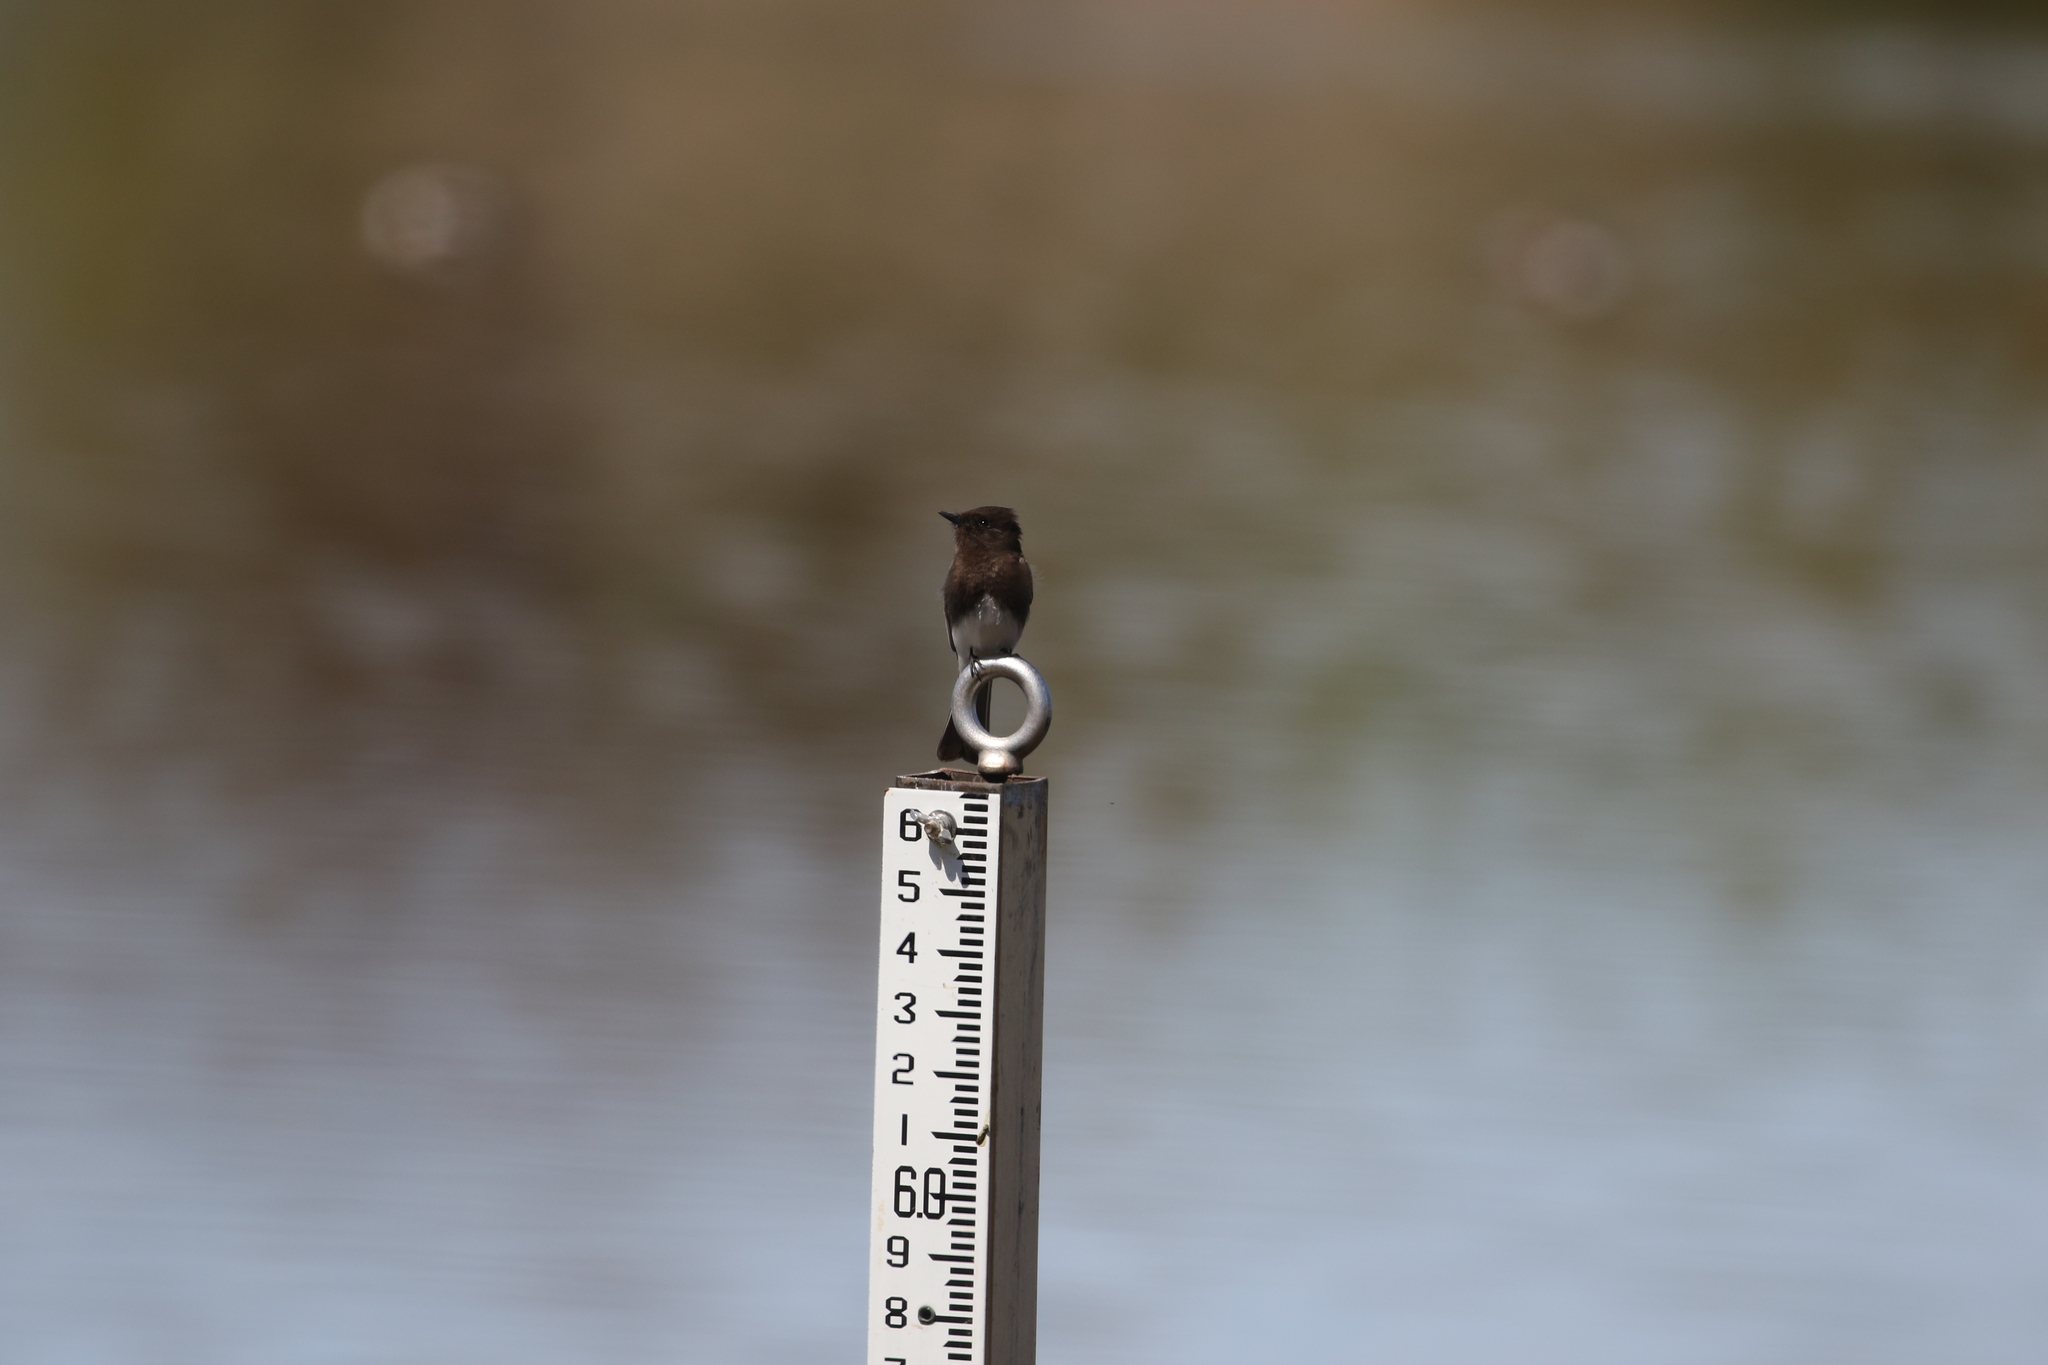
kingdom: Animalia
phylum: Chordata
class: Aves
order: Passeriformes
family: Tyrannidae
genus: Sayornis
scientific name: Sayornis nigricans
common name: Black phoebe
